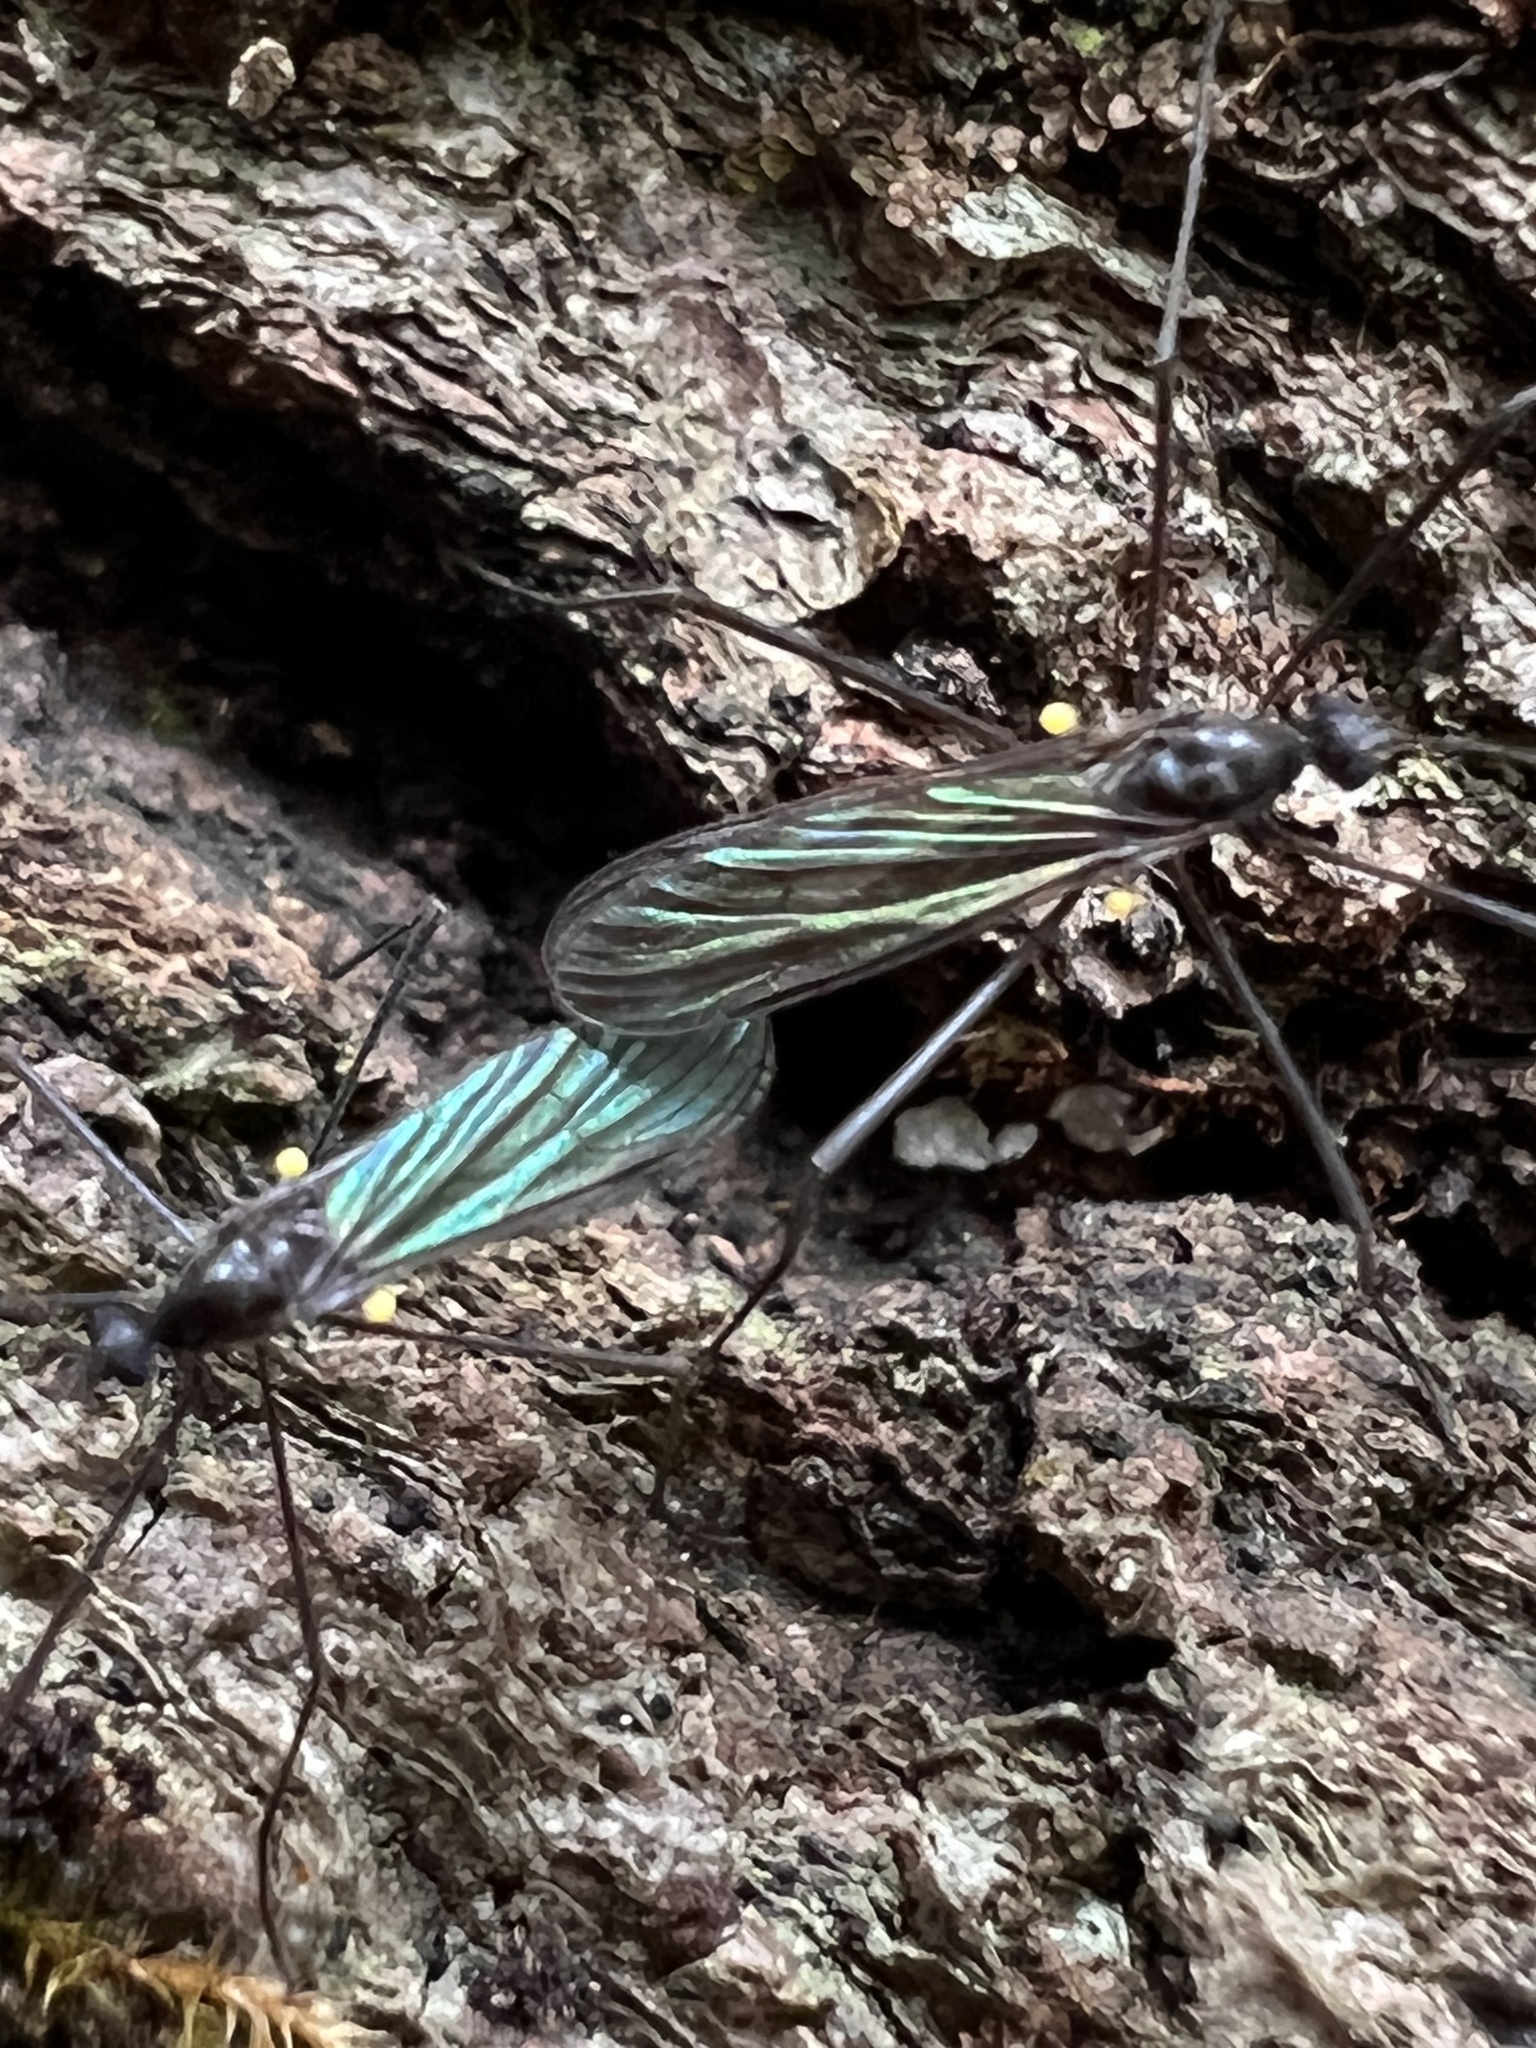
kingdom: Animalia
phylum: Arthropoda
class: Insecta
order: Diptera
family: Limoniidae
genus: Gnophomyia
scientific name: Gnophomyia tristissima
